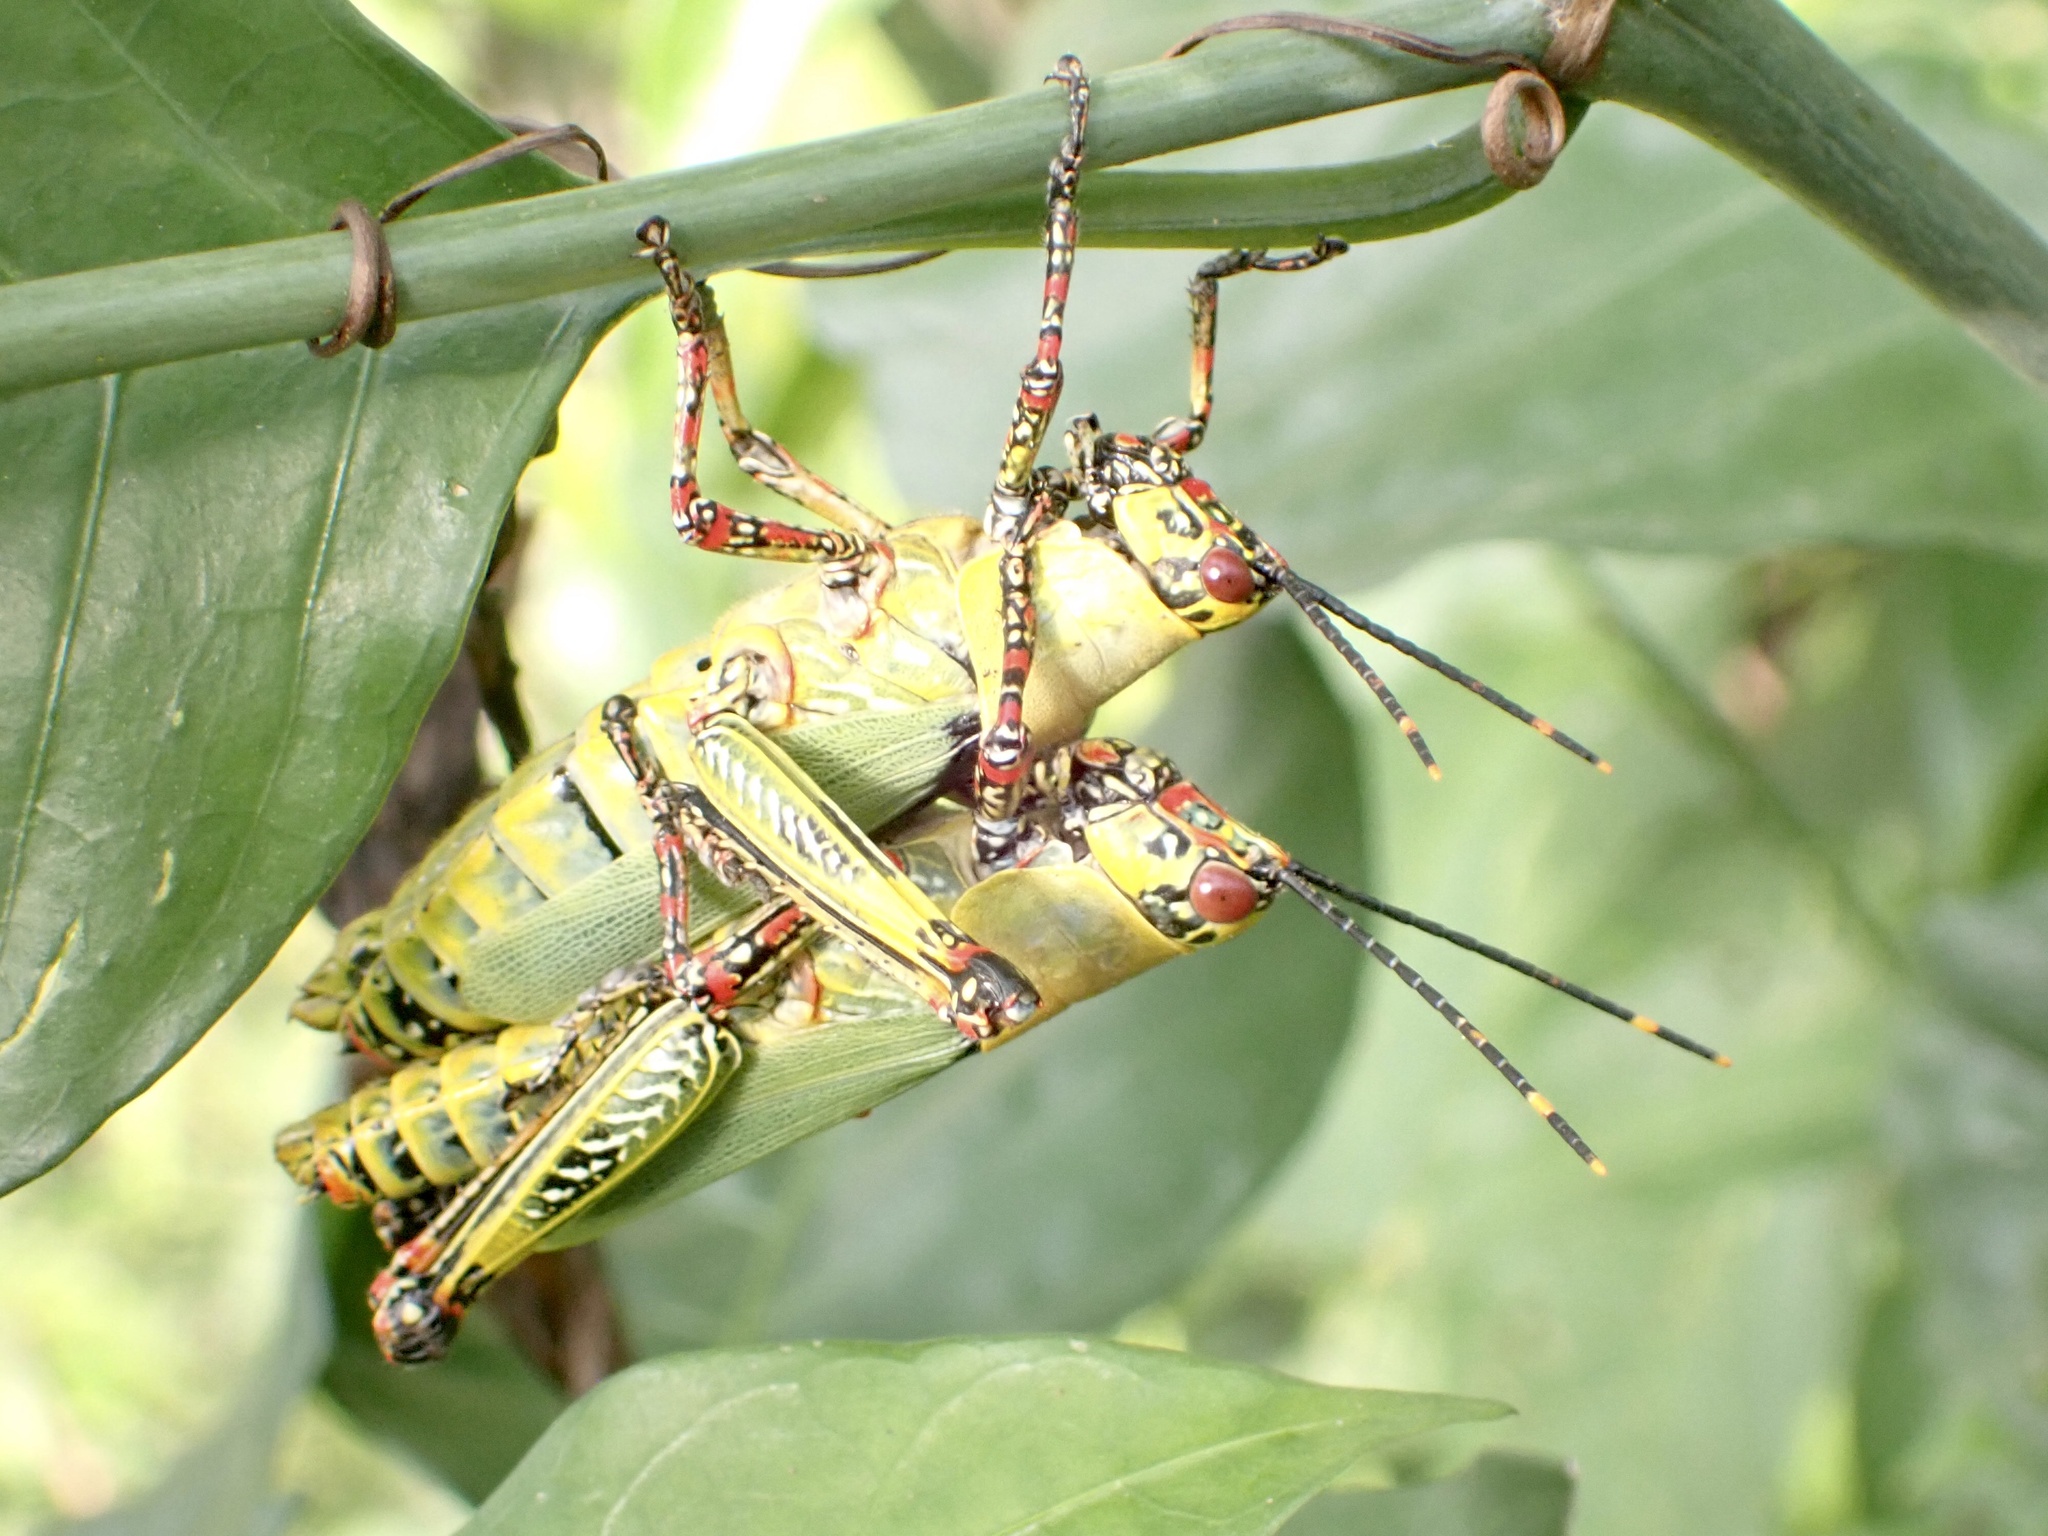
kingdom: Animalia
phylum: Arthropoda
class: Insecta
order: Orthoptera
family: Pyrgomorphidae
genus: Zonocerus
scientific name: Zonocerus variegatus
